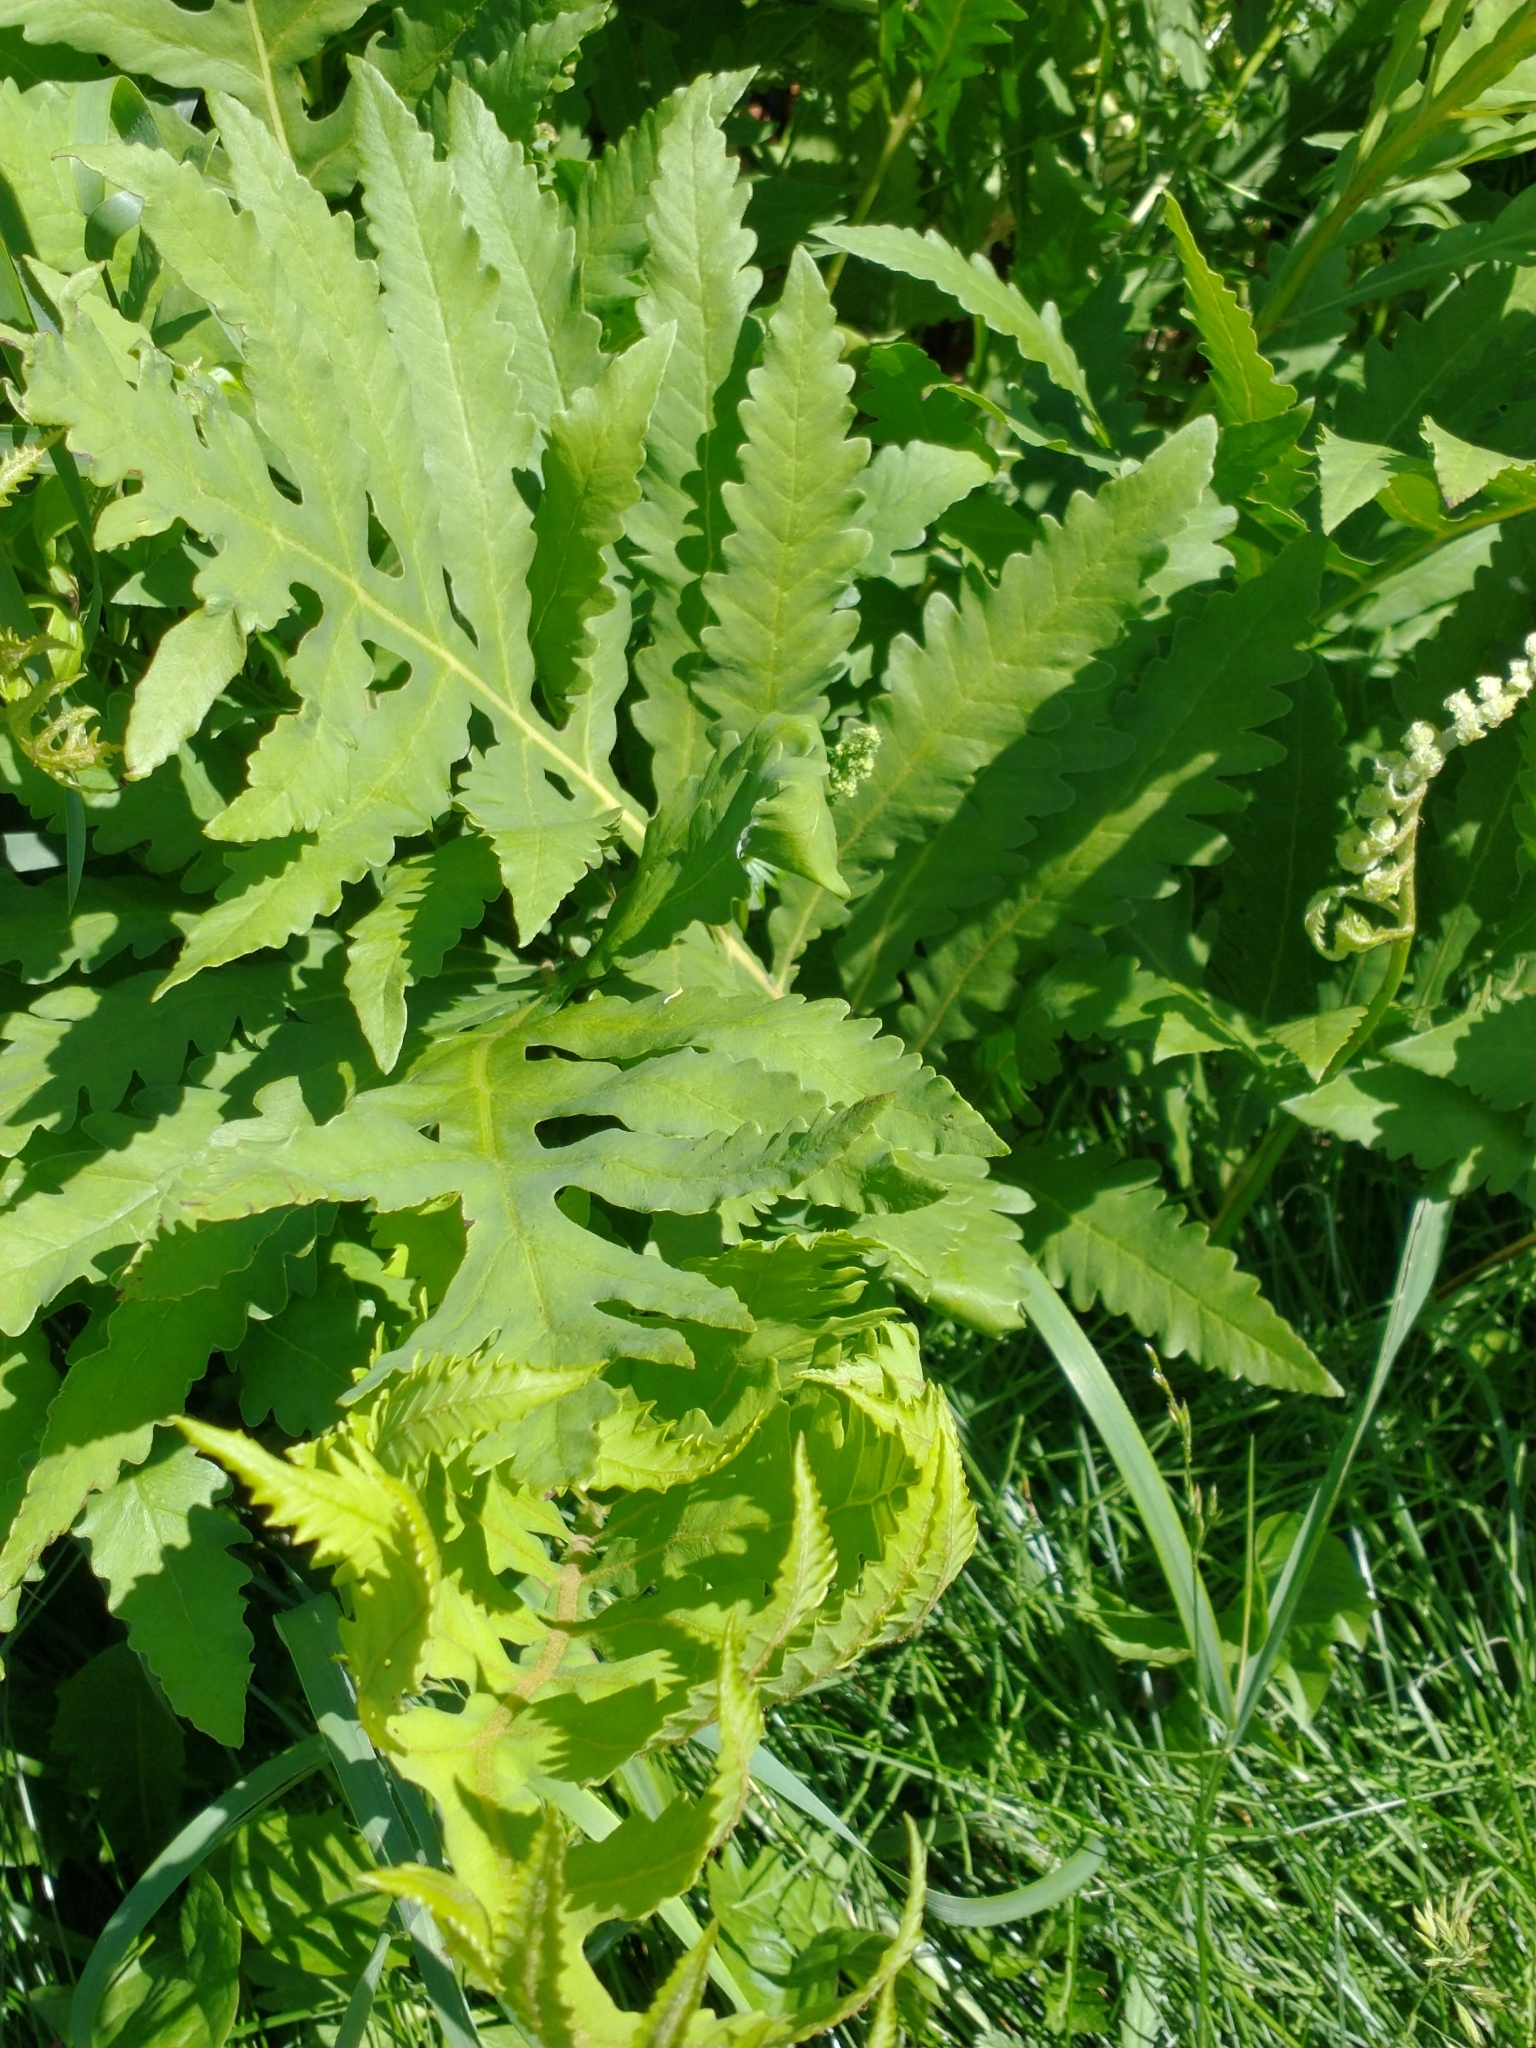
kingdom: Plantae
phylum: Tracheophyta
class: Polypodiopsida
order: Polypodiales
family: Onocleaceae
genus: Onoclea
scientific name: Onoclea sensibilis
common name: Sensitive fern
